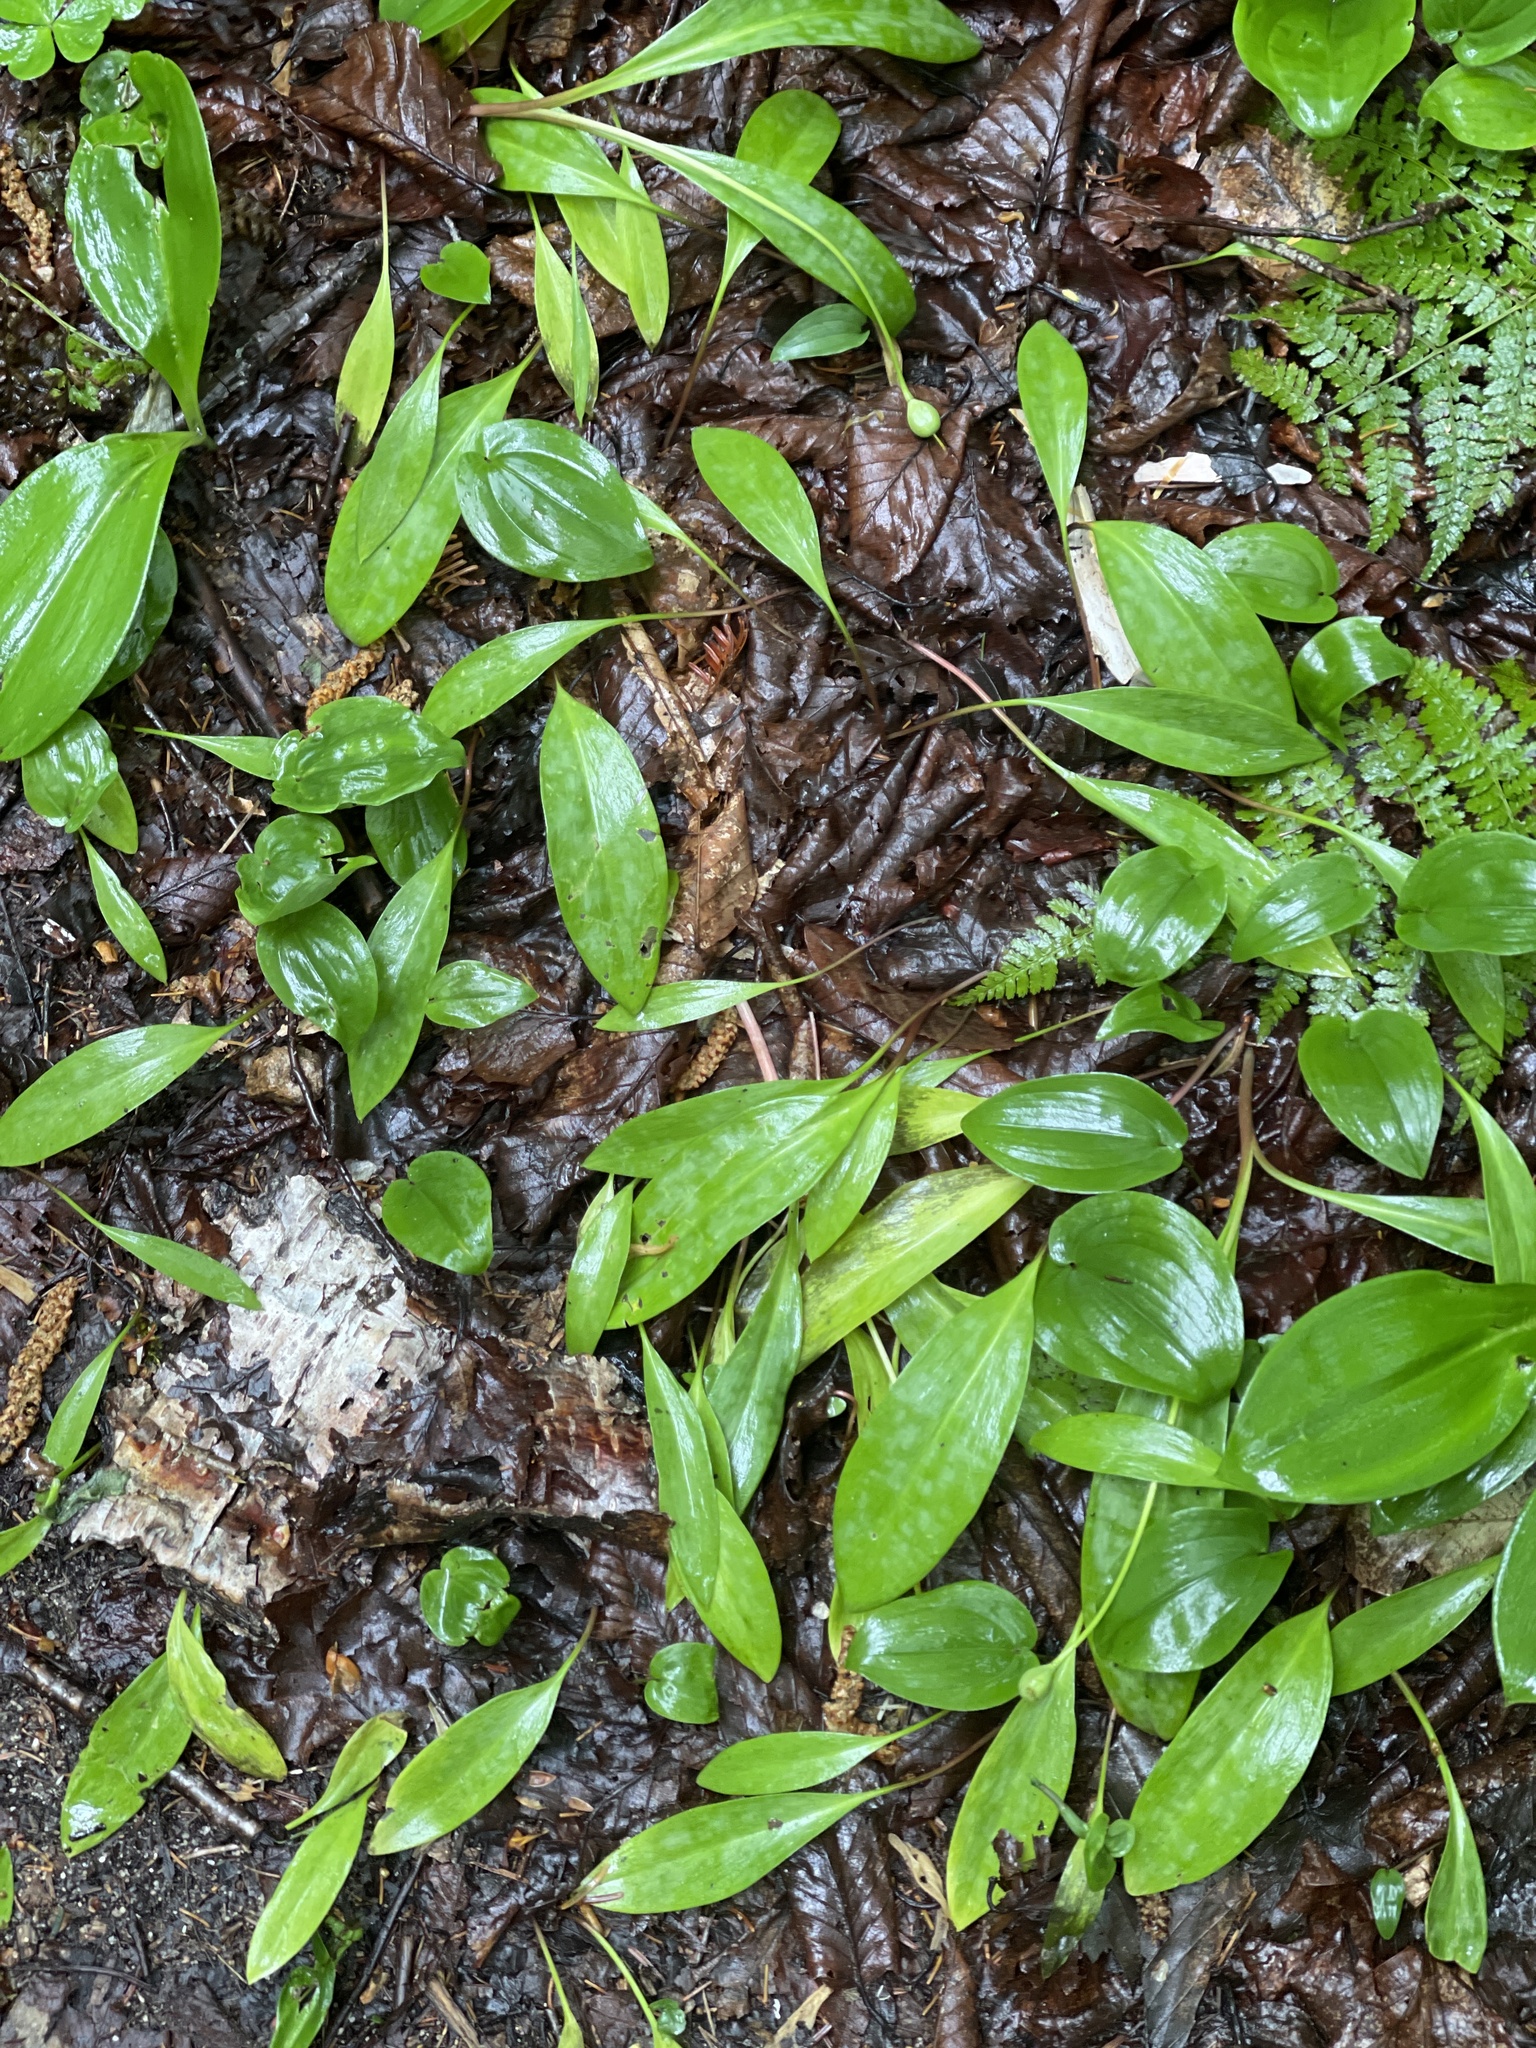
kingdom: Plantae
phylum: Tracheophyta
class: Liliopsida
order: Liliales
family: Liliaceae
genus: Erythronium
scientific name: Erythronium americanum
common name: Yellow adder's-tongue
